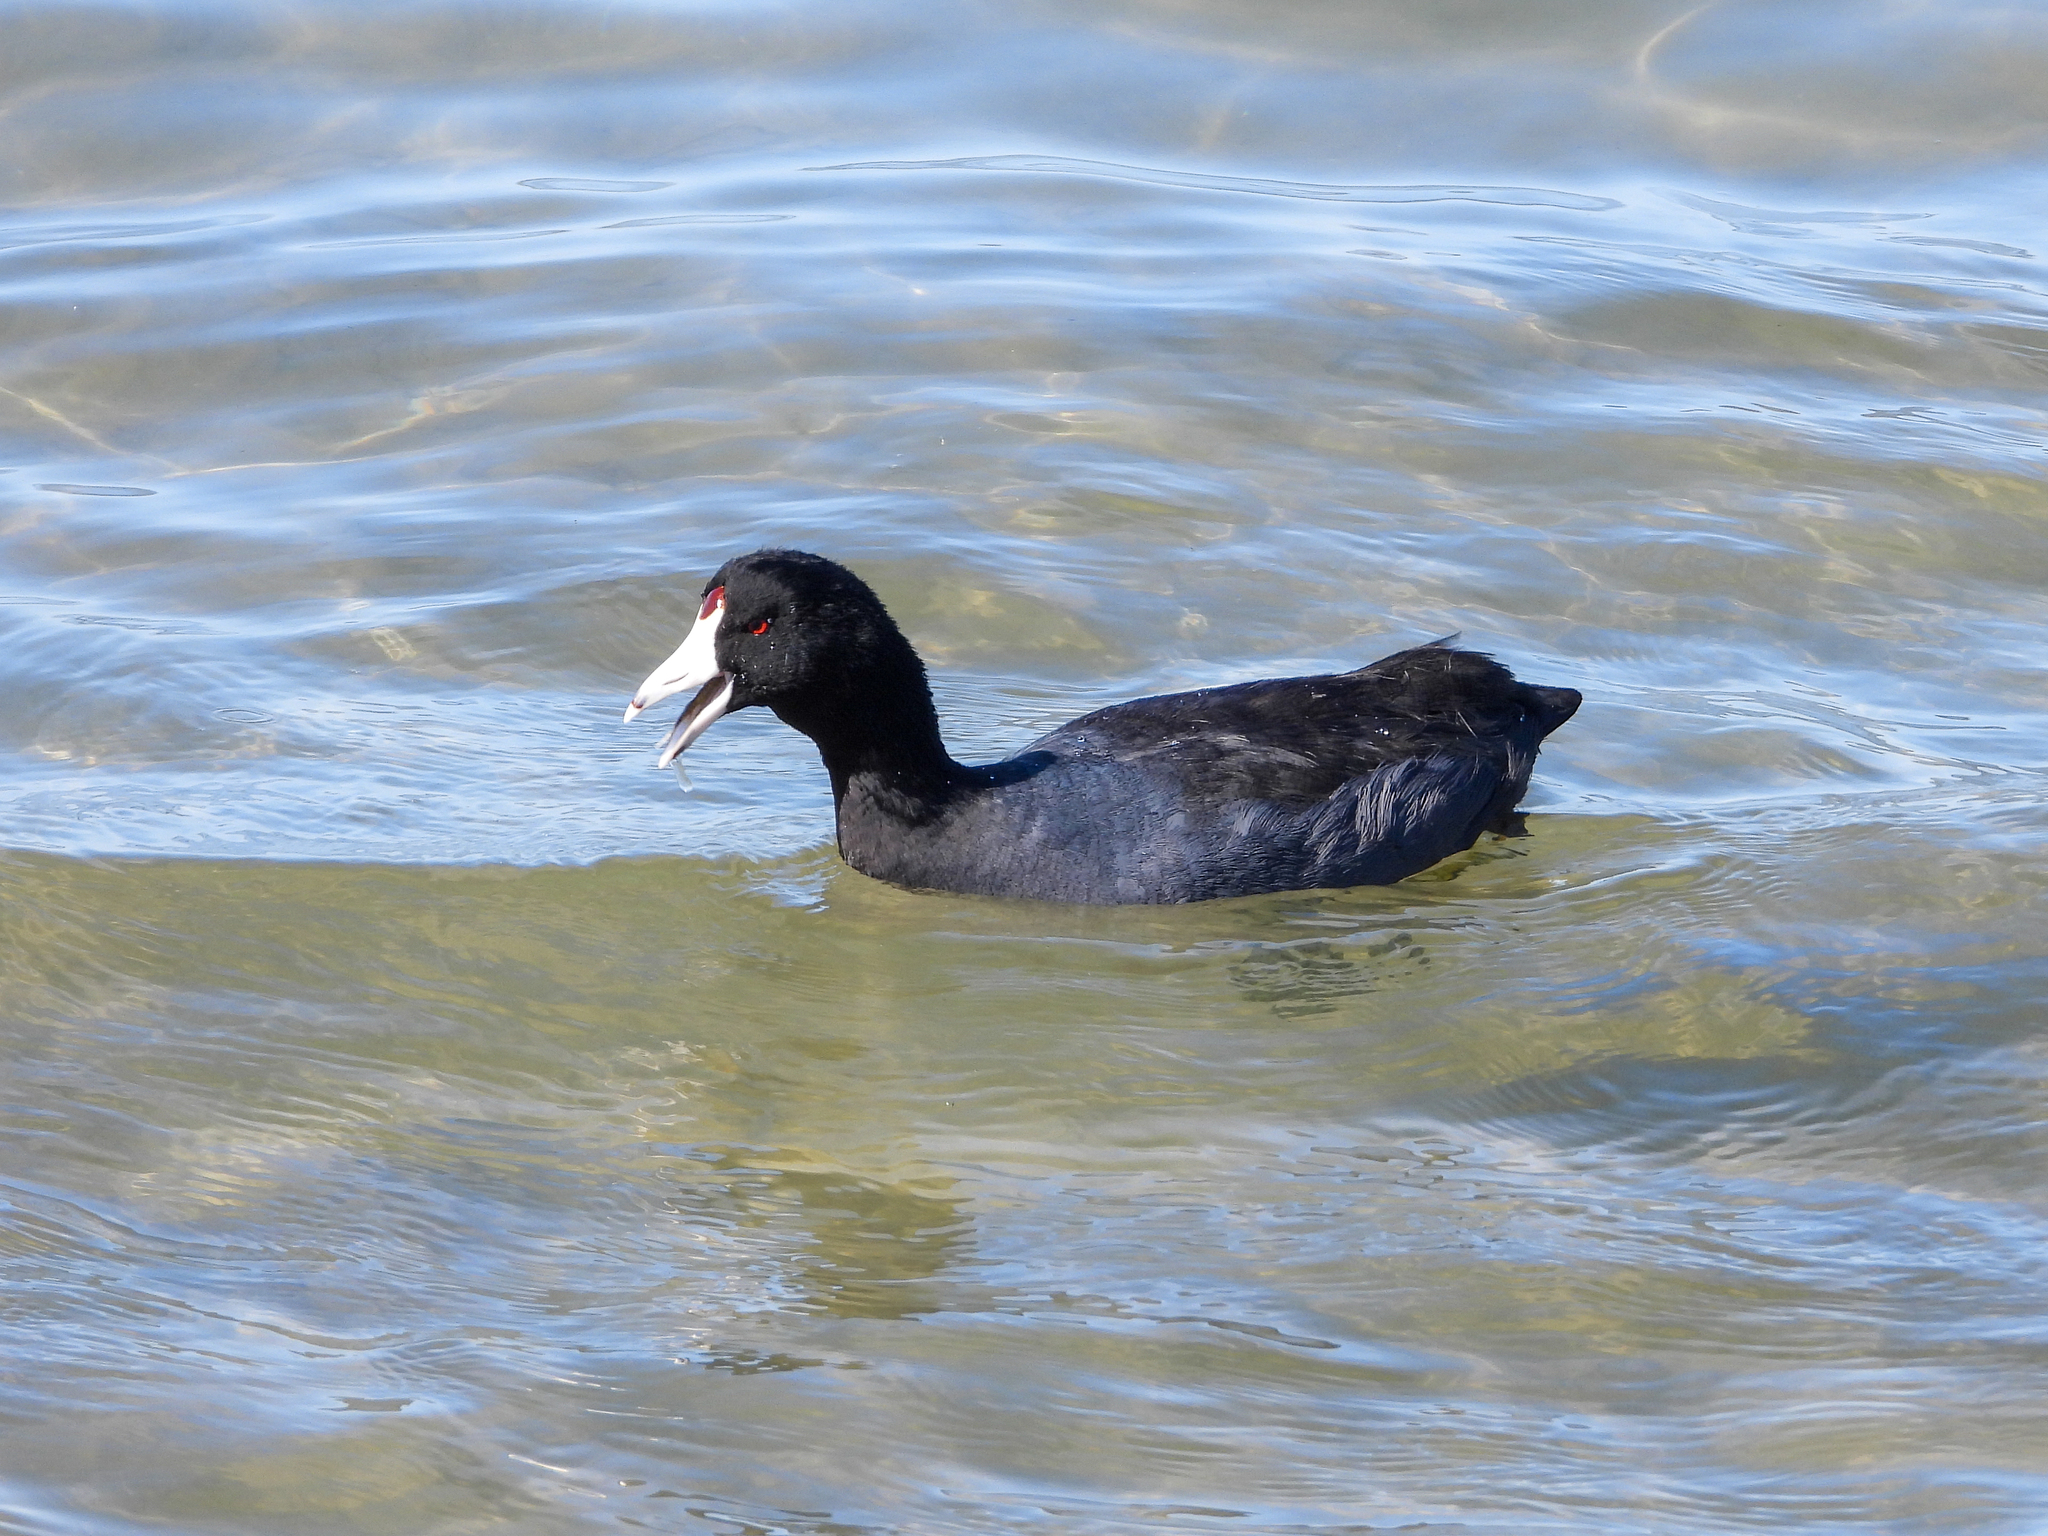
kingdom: Animalia
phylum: Chordata
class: Aves
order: Gruiformes
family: Rallidae
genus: Fulica
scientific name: Fulica americana
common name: American coot
